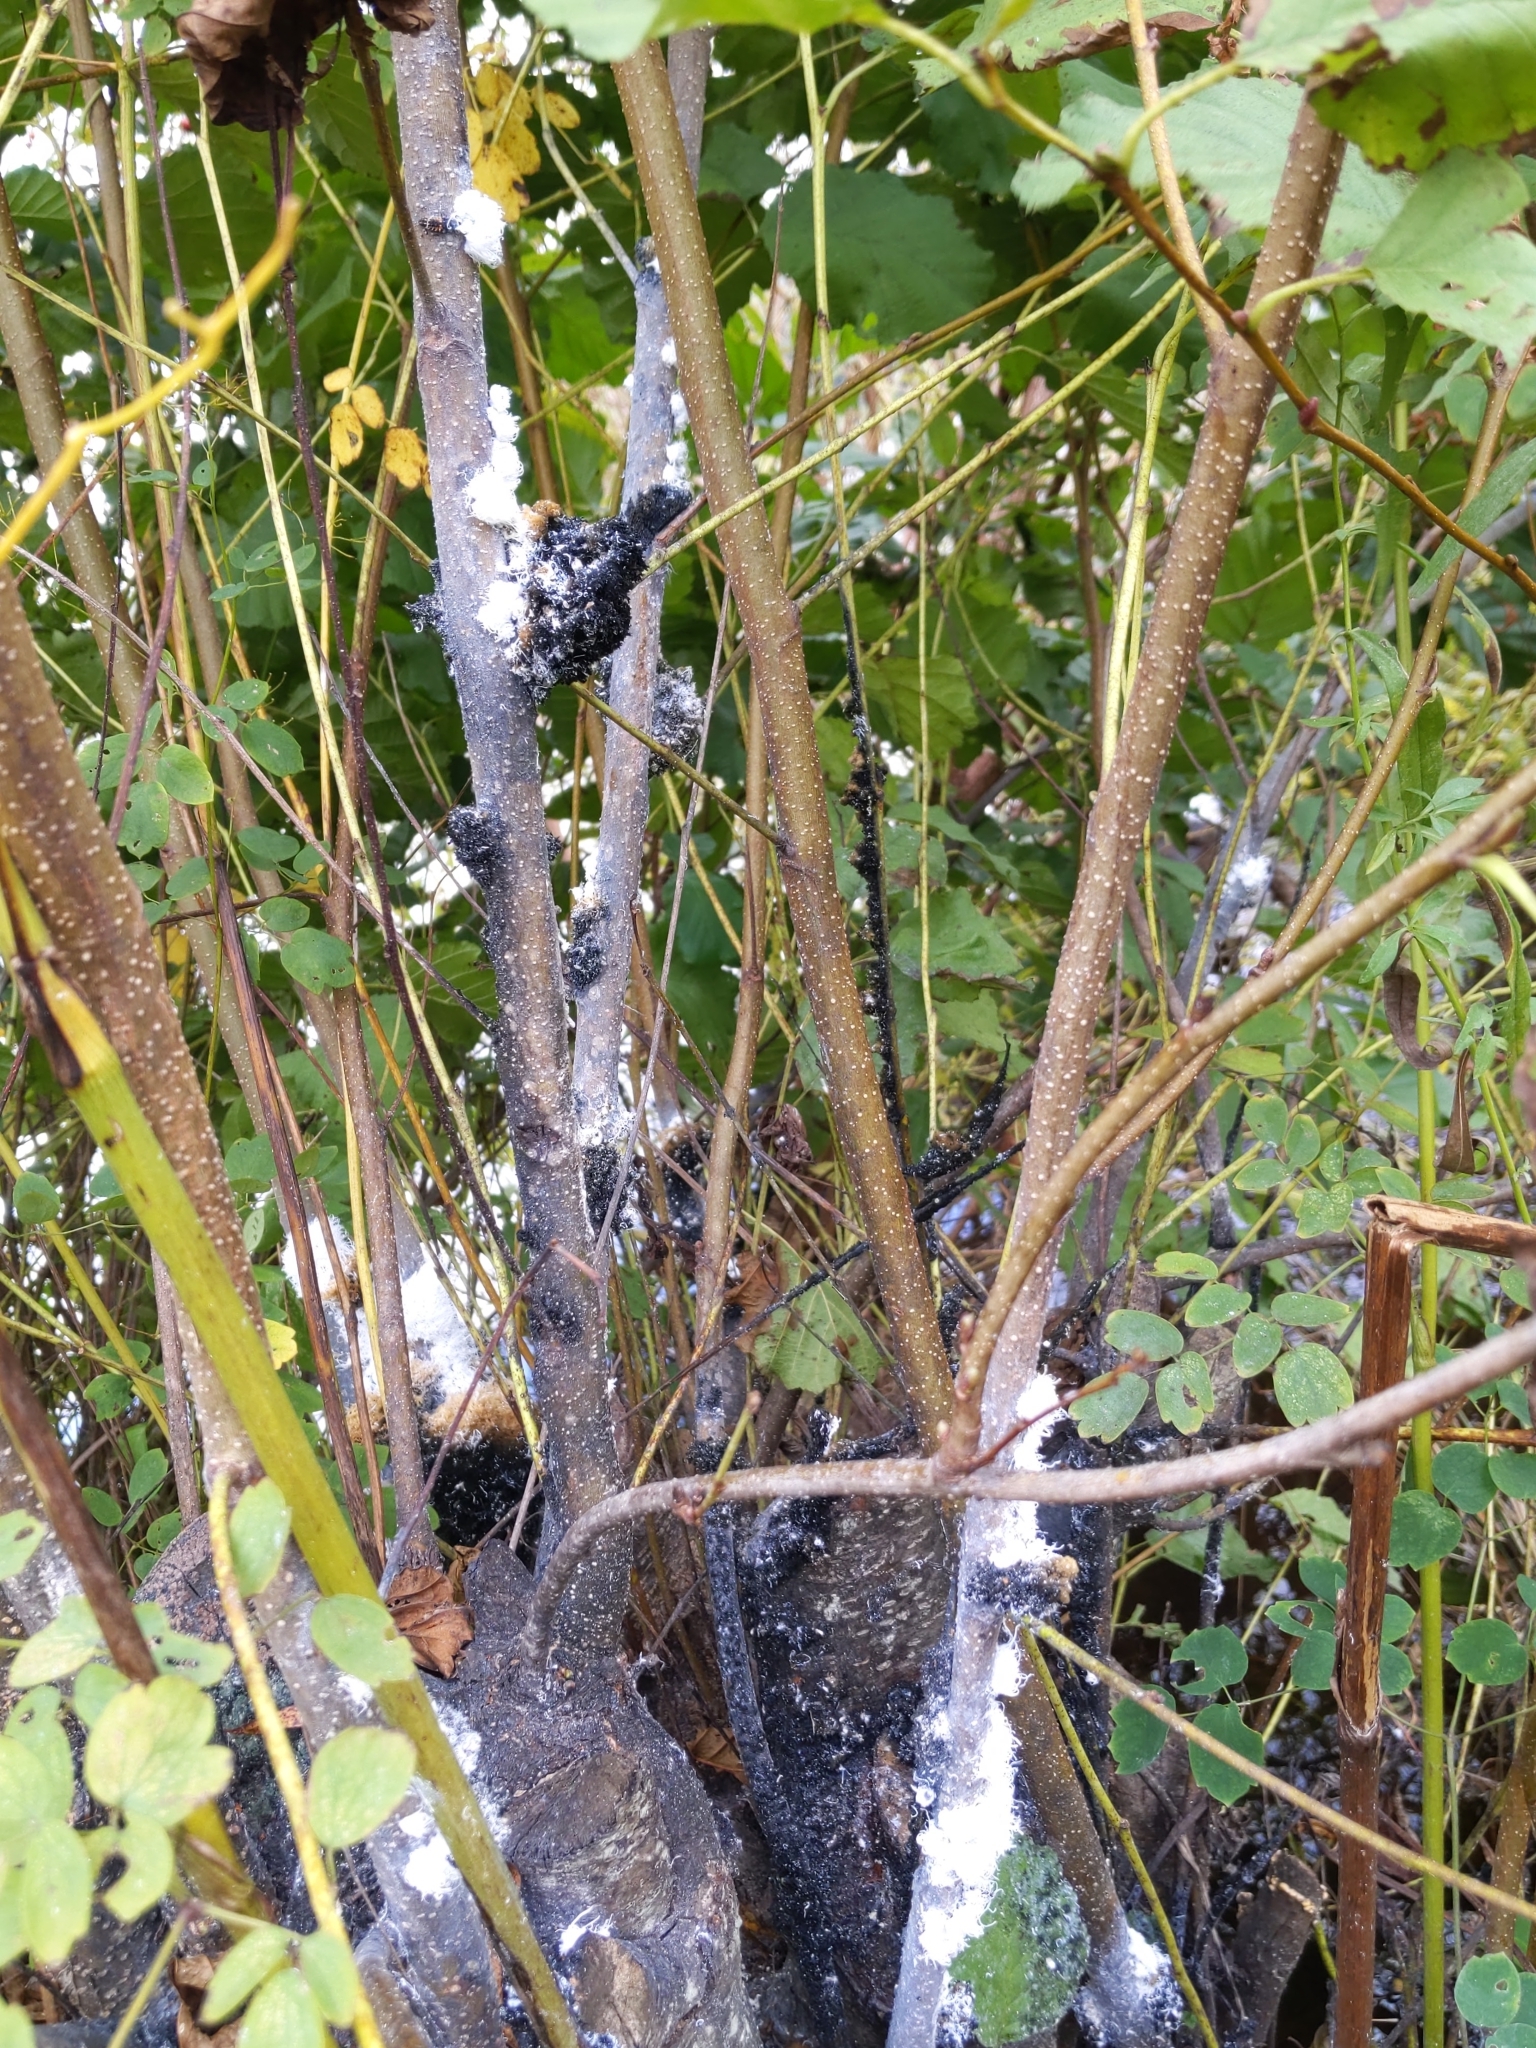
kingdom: Animalia
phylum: Arthropoda
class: Insecta
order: Hemiptera
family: Aphididae
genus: Prociphilus
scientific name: Prociphilus tessellatus
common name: Woolly alder aphid
